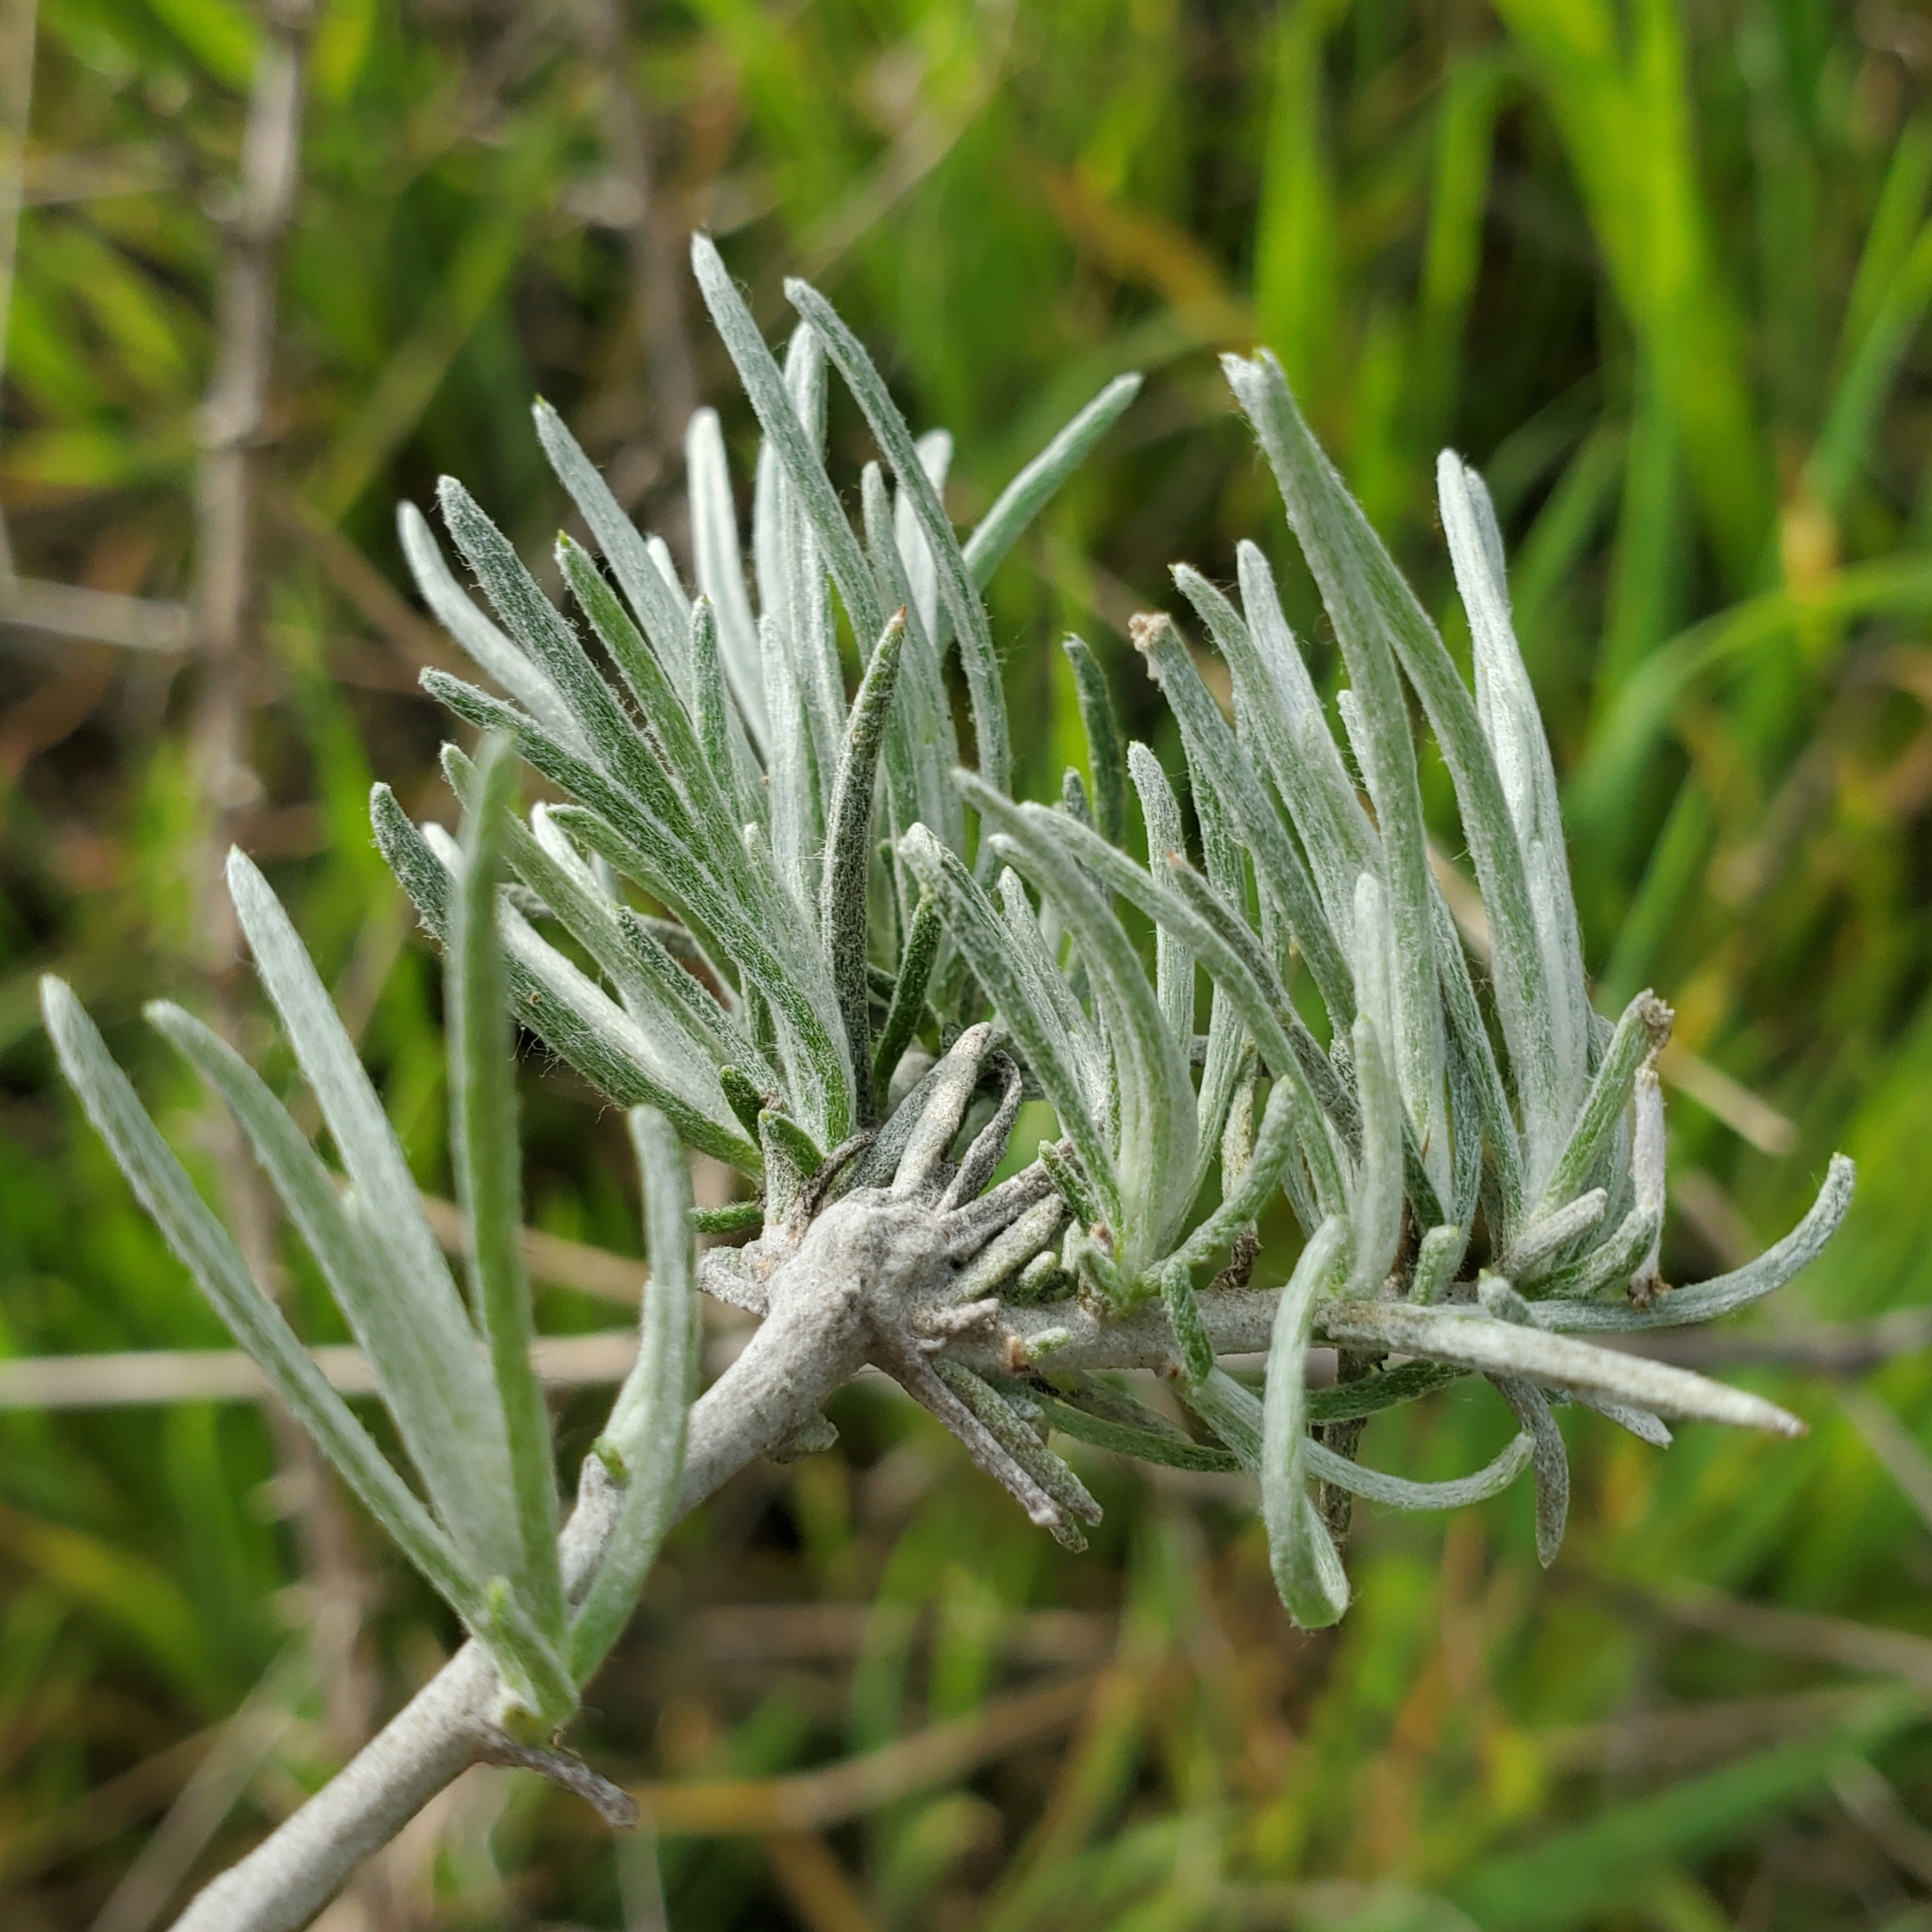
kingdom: Plantae
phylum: Tracheophyta
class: Magnoliopsida
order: Asterales
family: Asteraceae
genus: Tetradymia
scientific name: Tetradymia comosa
